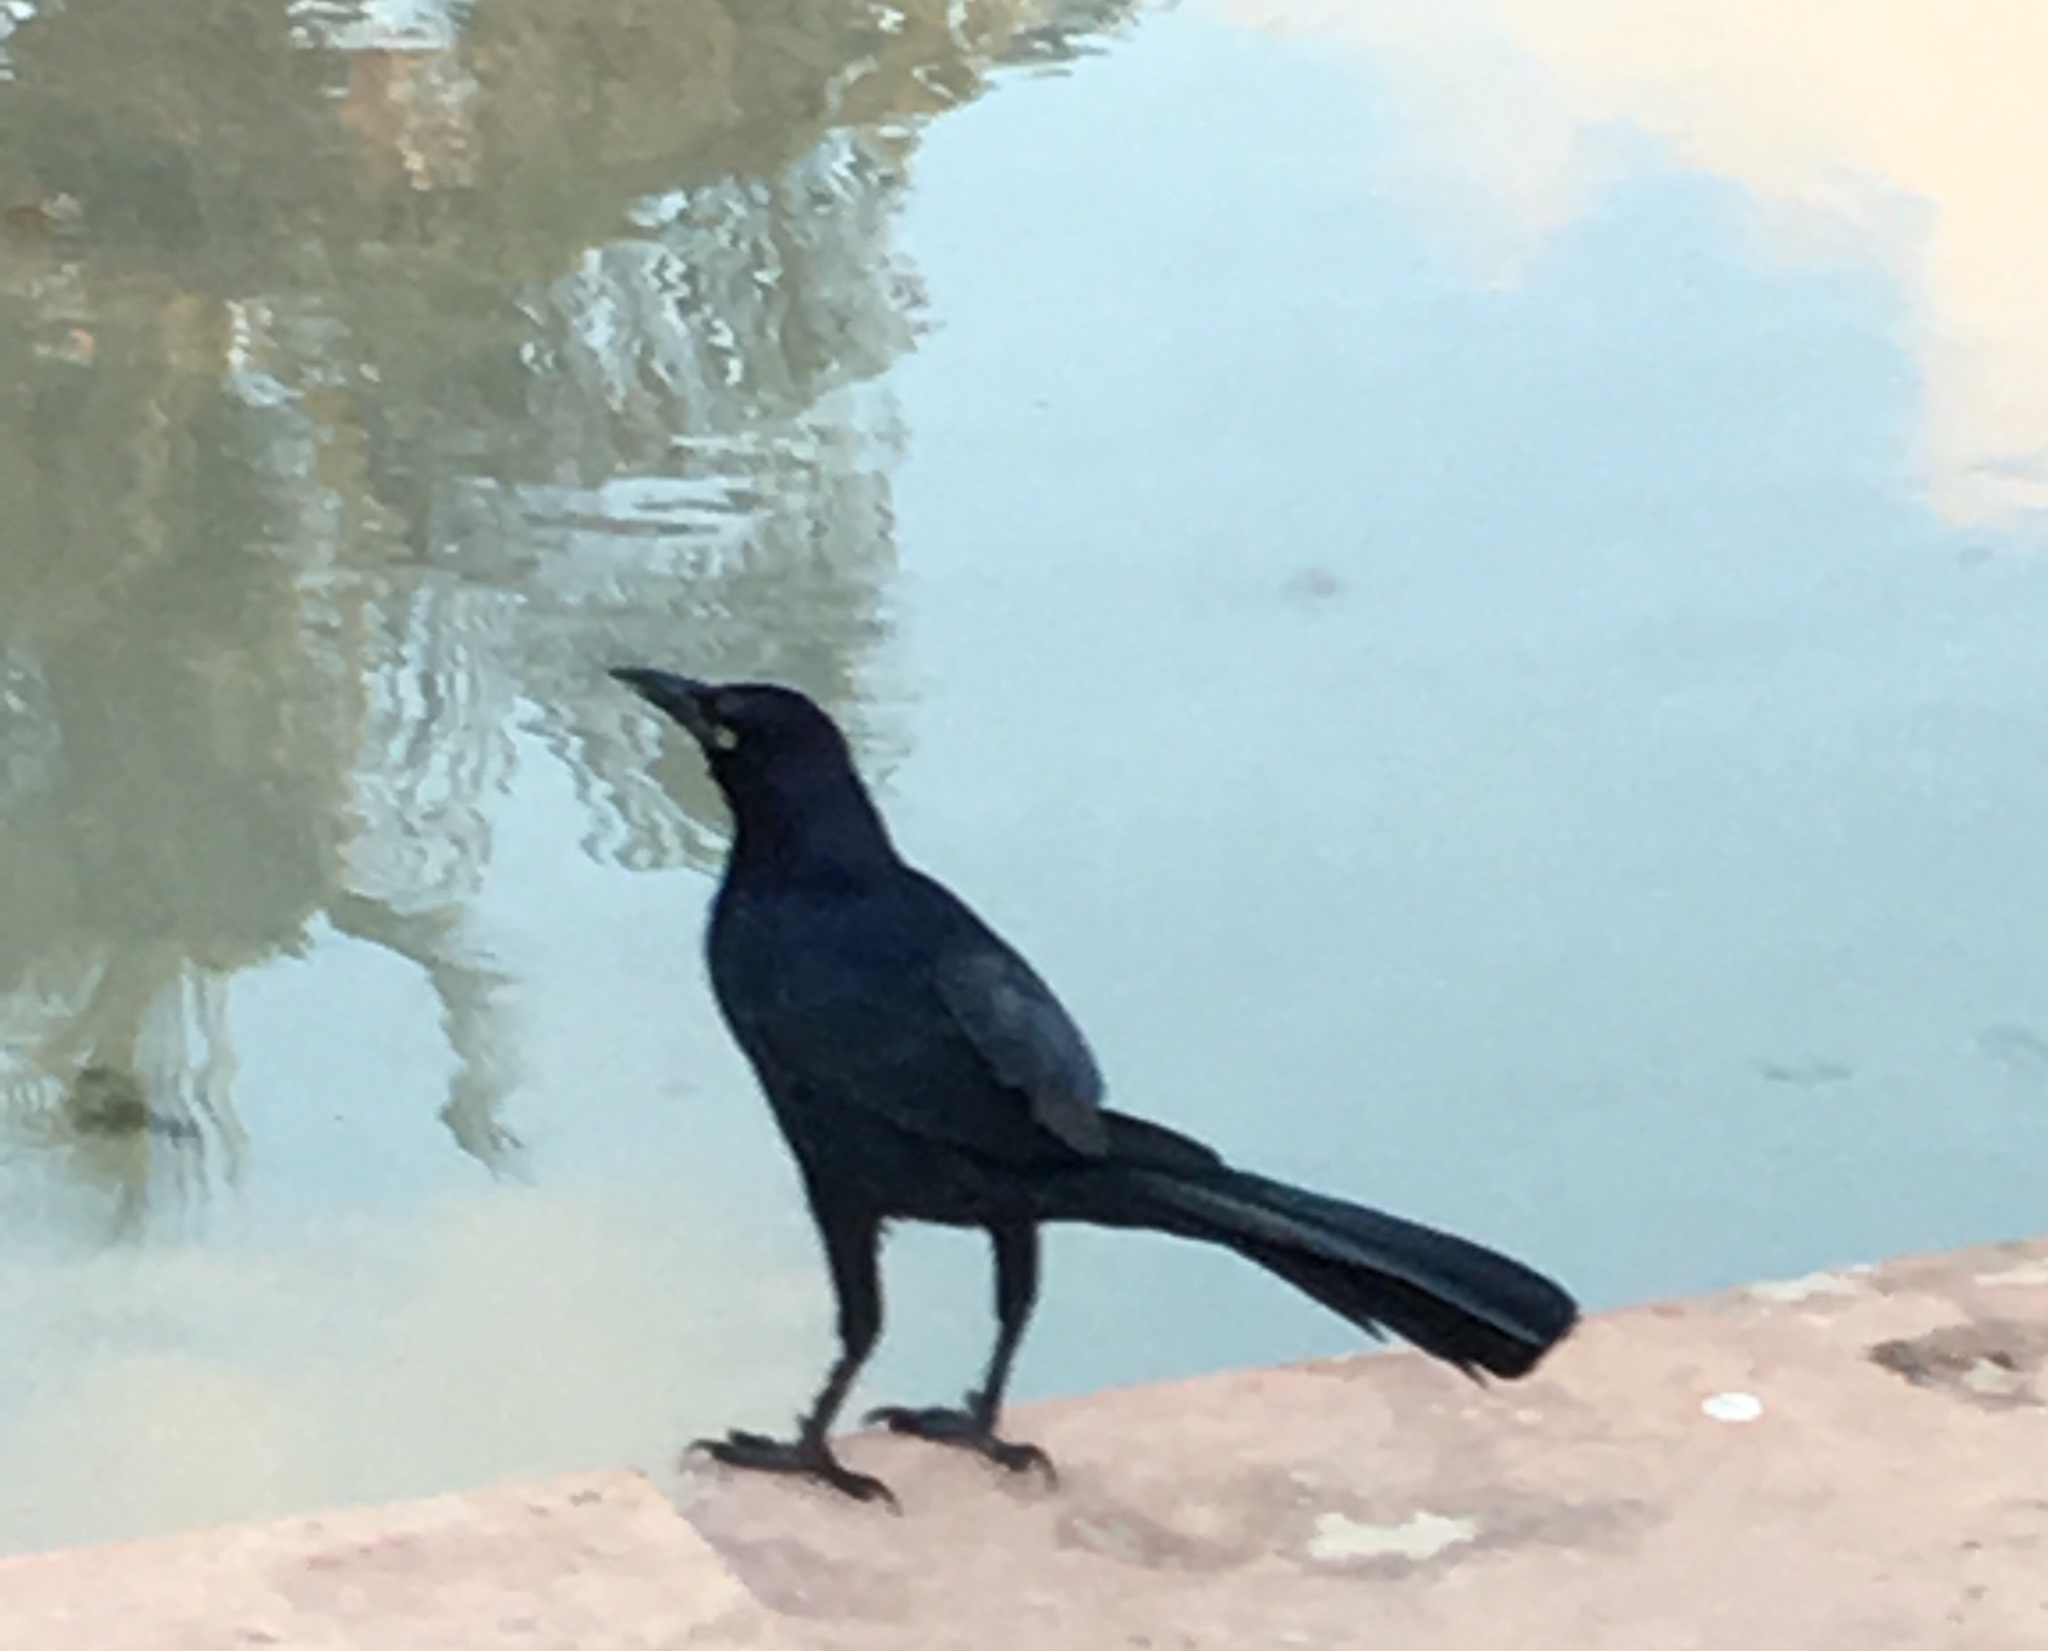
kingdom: Animalia
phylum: Chordata
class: Aves
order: Passeriformes
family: Icteridae
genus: Quiscalus
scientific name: Quiscalus mexicanus
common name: Great-tailed grackle
